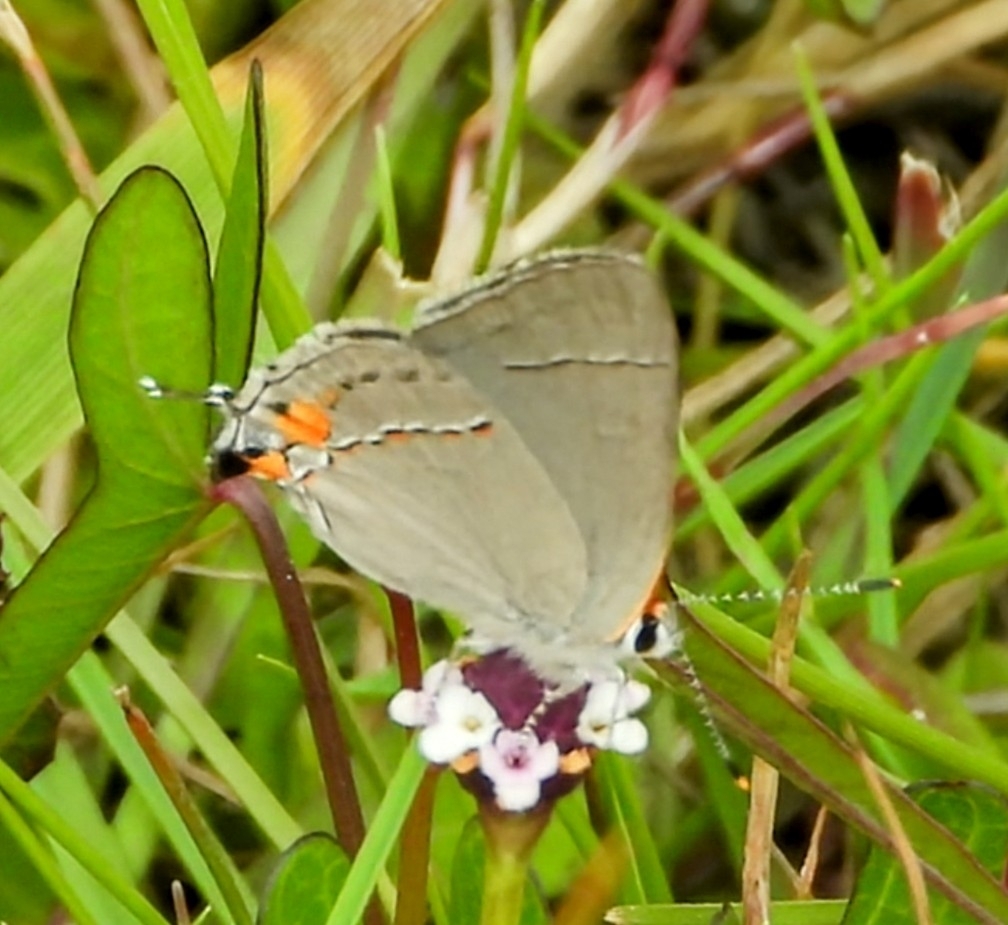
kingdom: Animalia
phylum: Arthropoda
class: Insecta
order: Lepidoptera
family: Lycaenidae
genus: Strymon
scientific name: Strymon melinus
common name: Gray hairstreak
